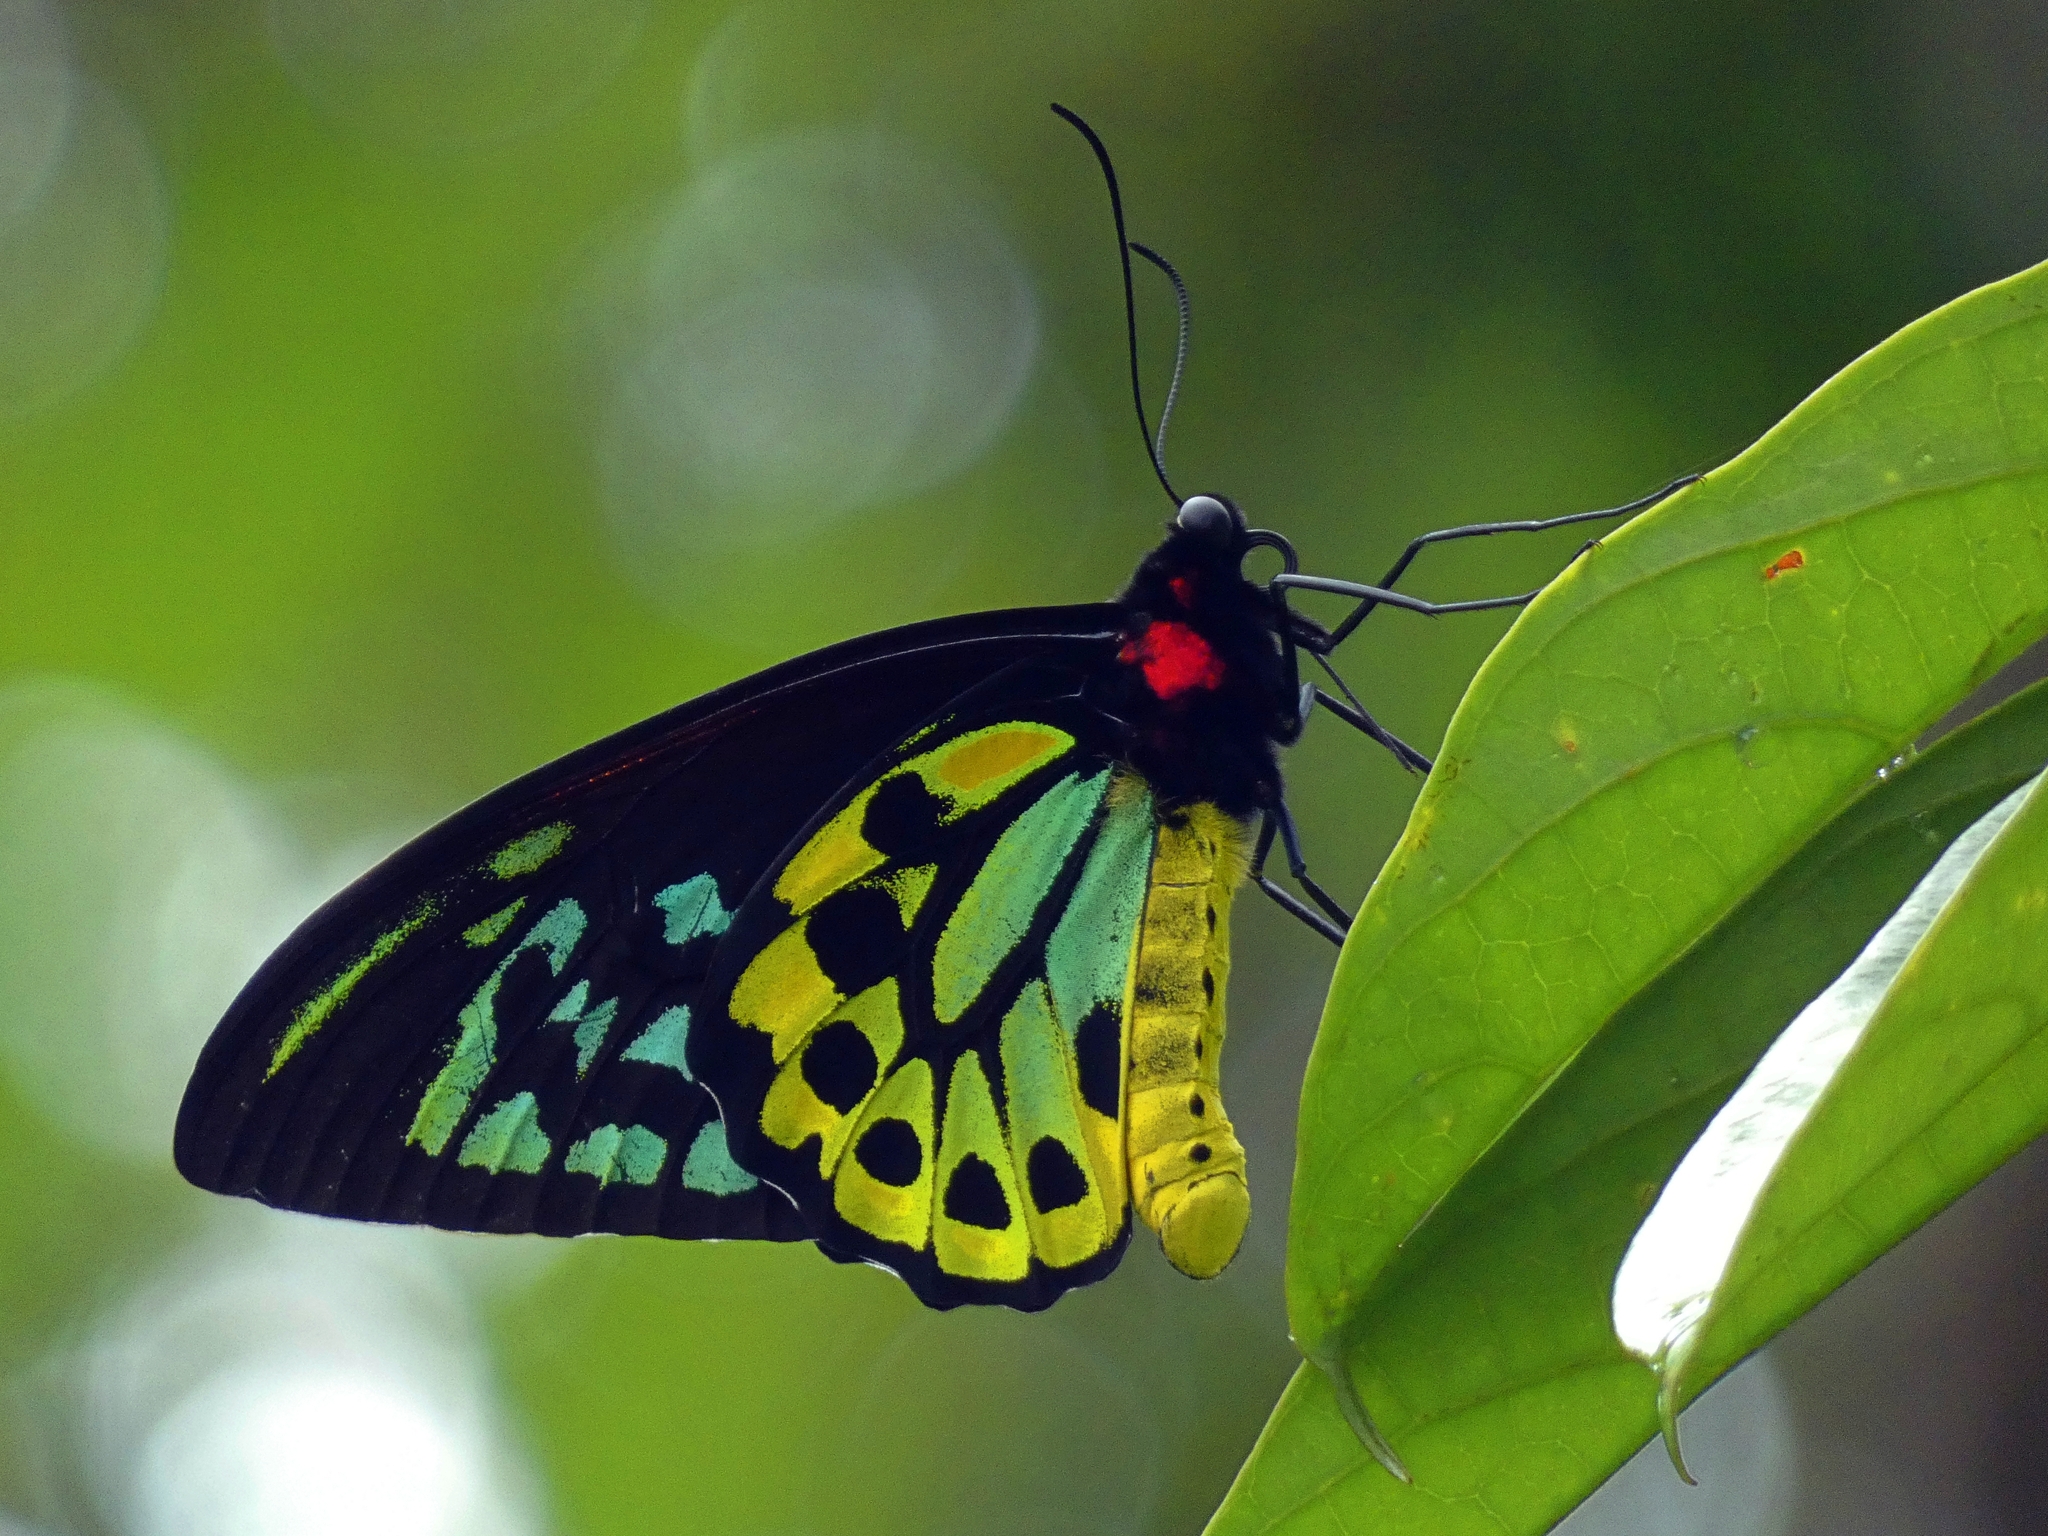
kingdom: Animalia
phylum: Arthropoda
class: Insecta
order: Lepidoptera
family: Papilionidae
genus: Ornithoptera
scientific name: Ornithoptera euphorion
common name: Cairns birdwing
